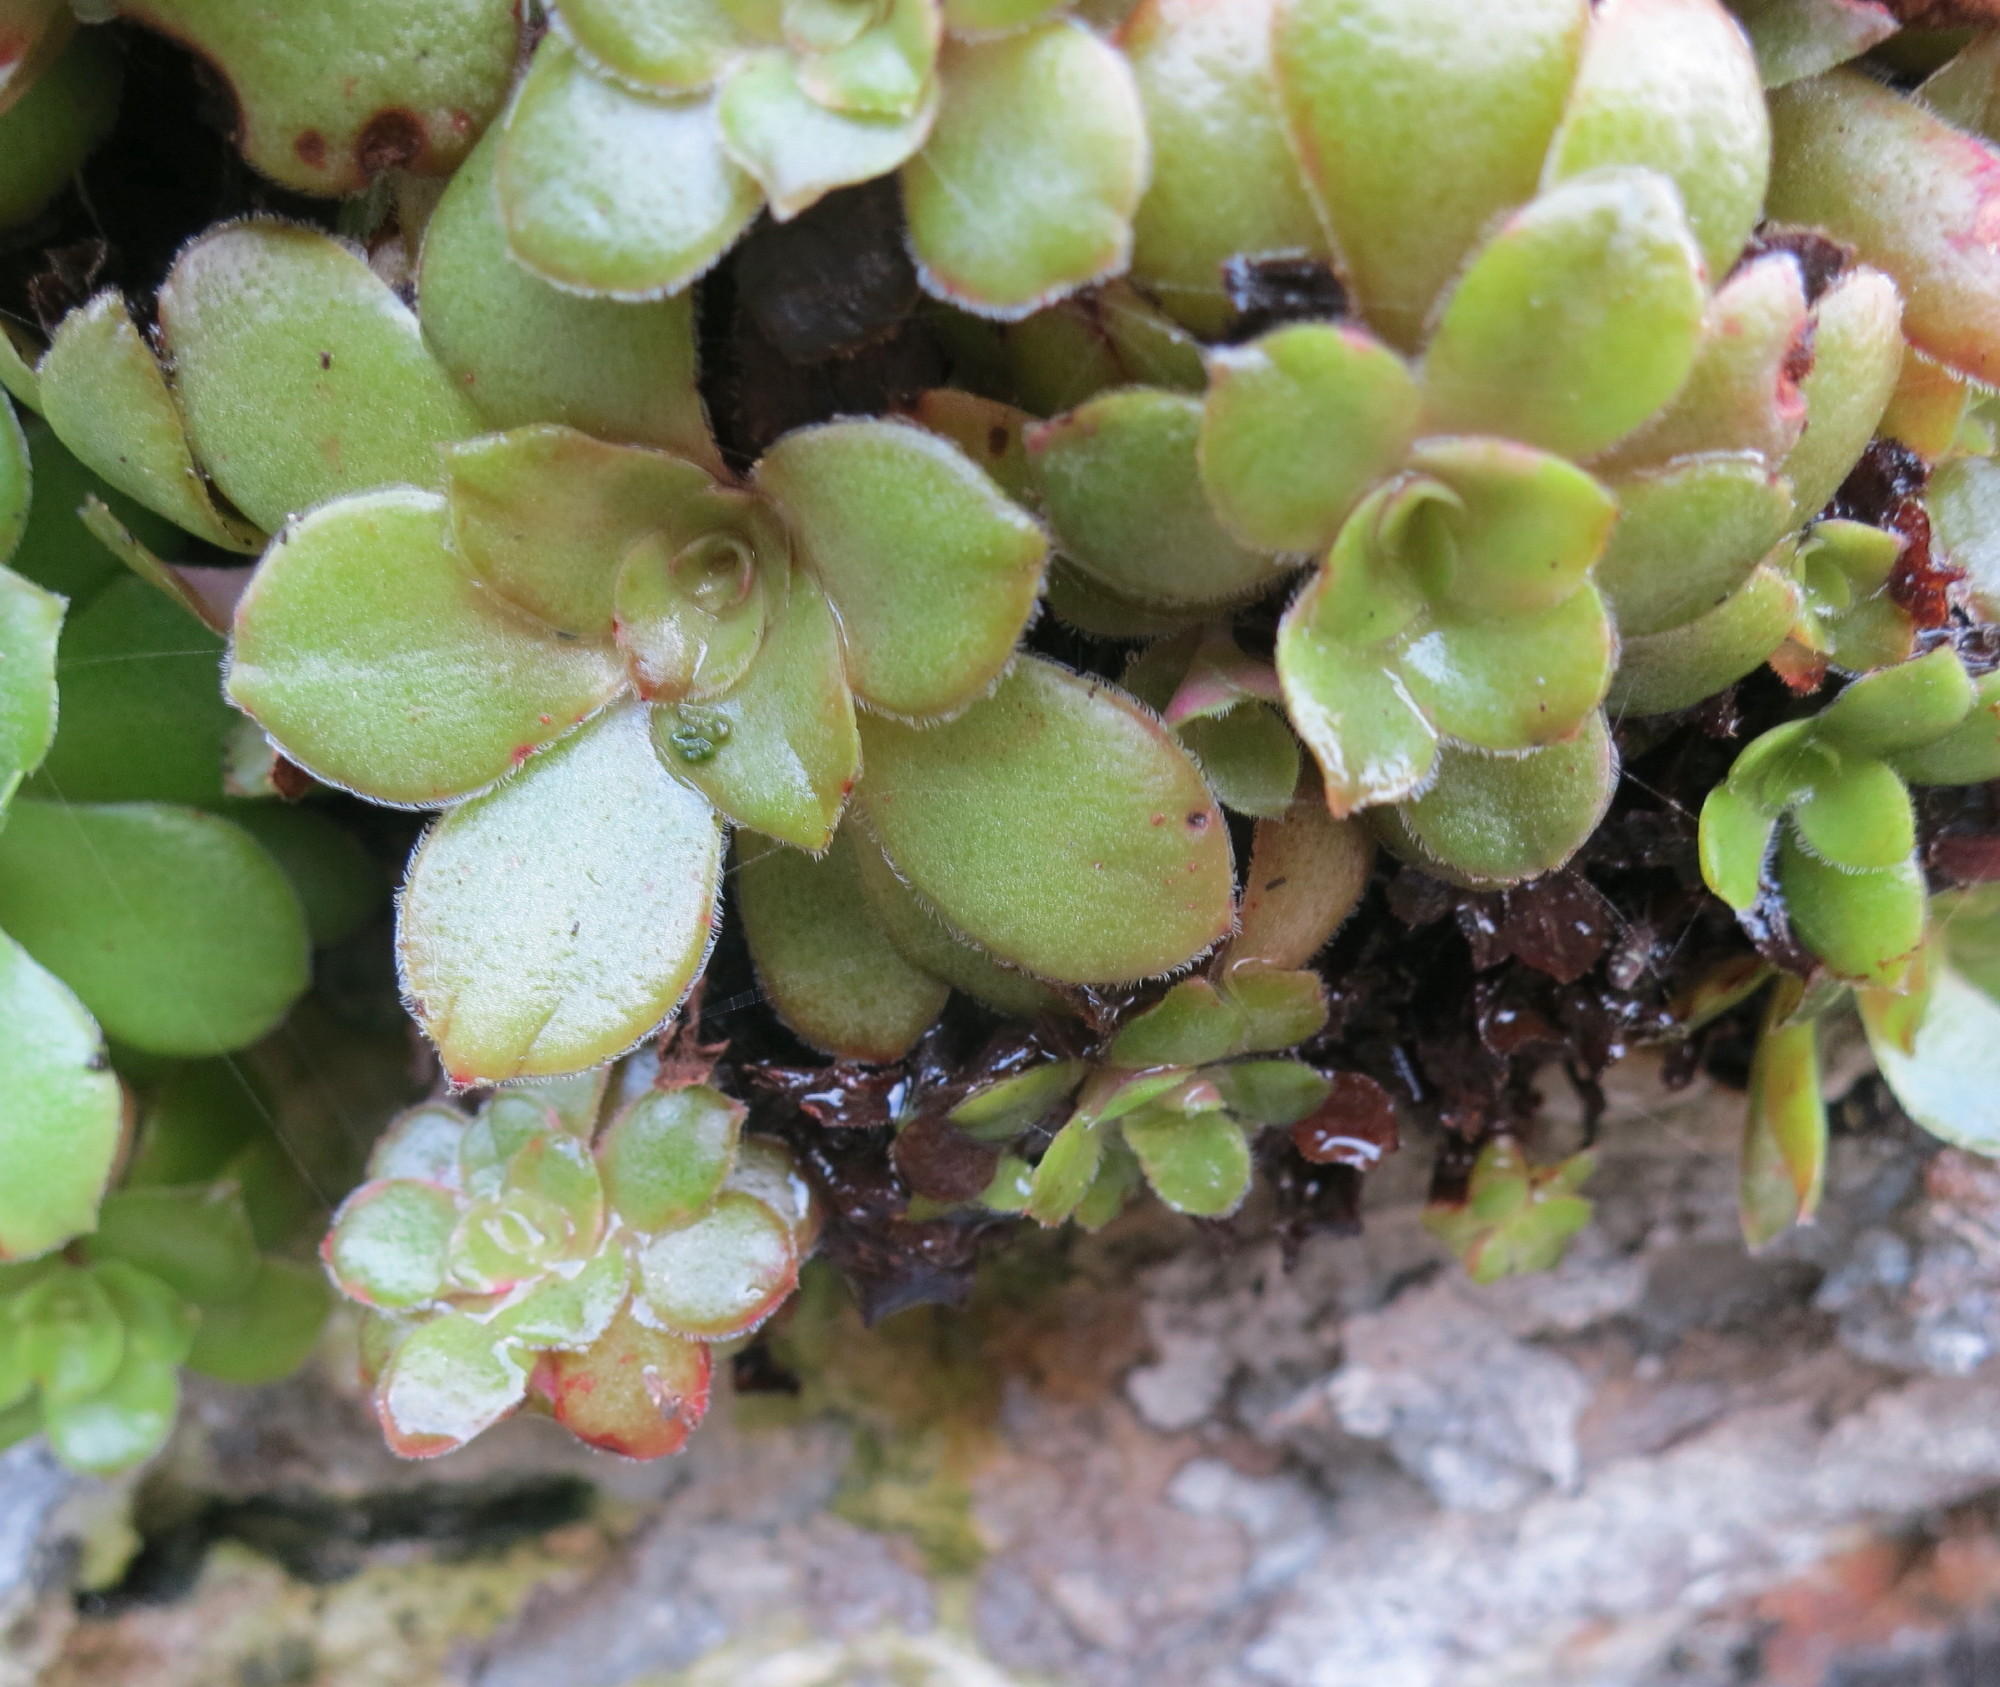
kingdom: Plantae
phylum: Tracheophyta
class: Magnoliopsida
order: Saxifragales
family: Crassulaceae
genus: Crassula
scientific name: Crassula orbicularis
